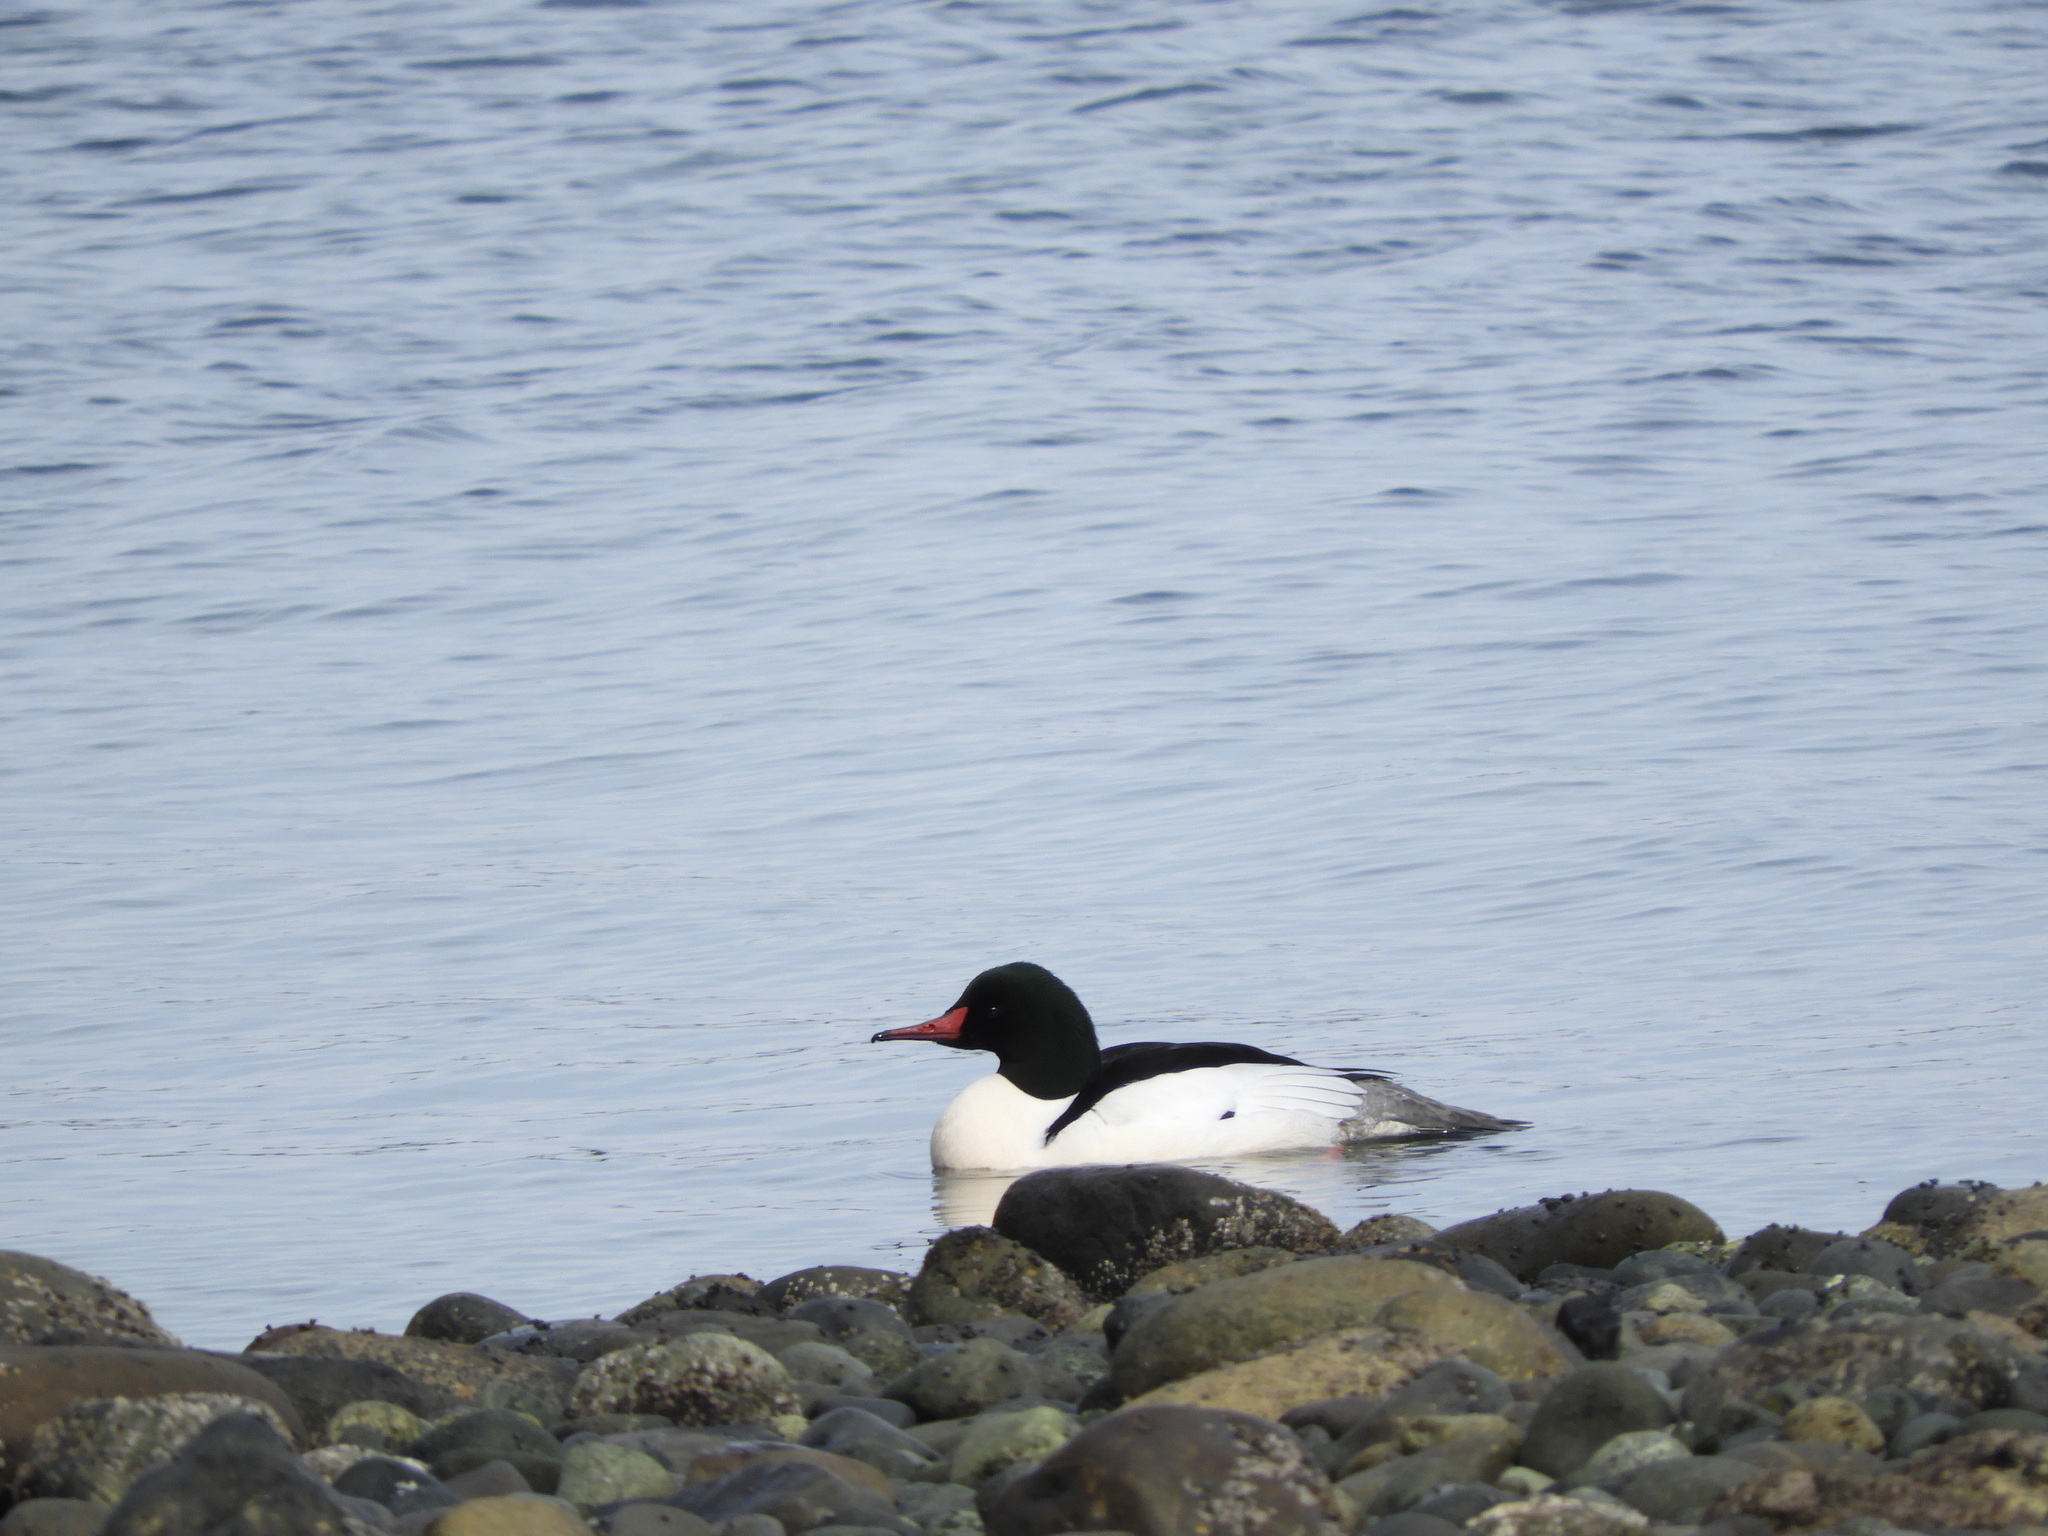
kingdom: Animalia
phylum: Chordata
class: Aves
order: Anseriformes
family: Anatidae
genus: Mergus
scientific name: Mergus merganser
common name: Common merganser
